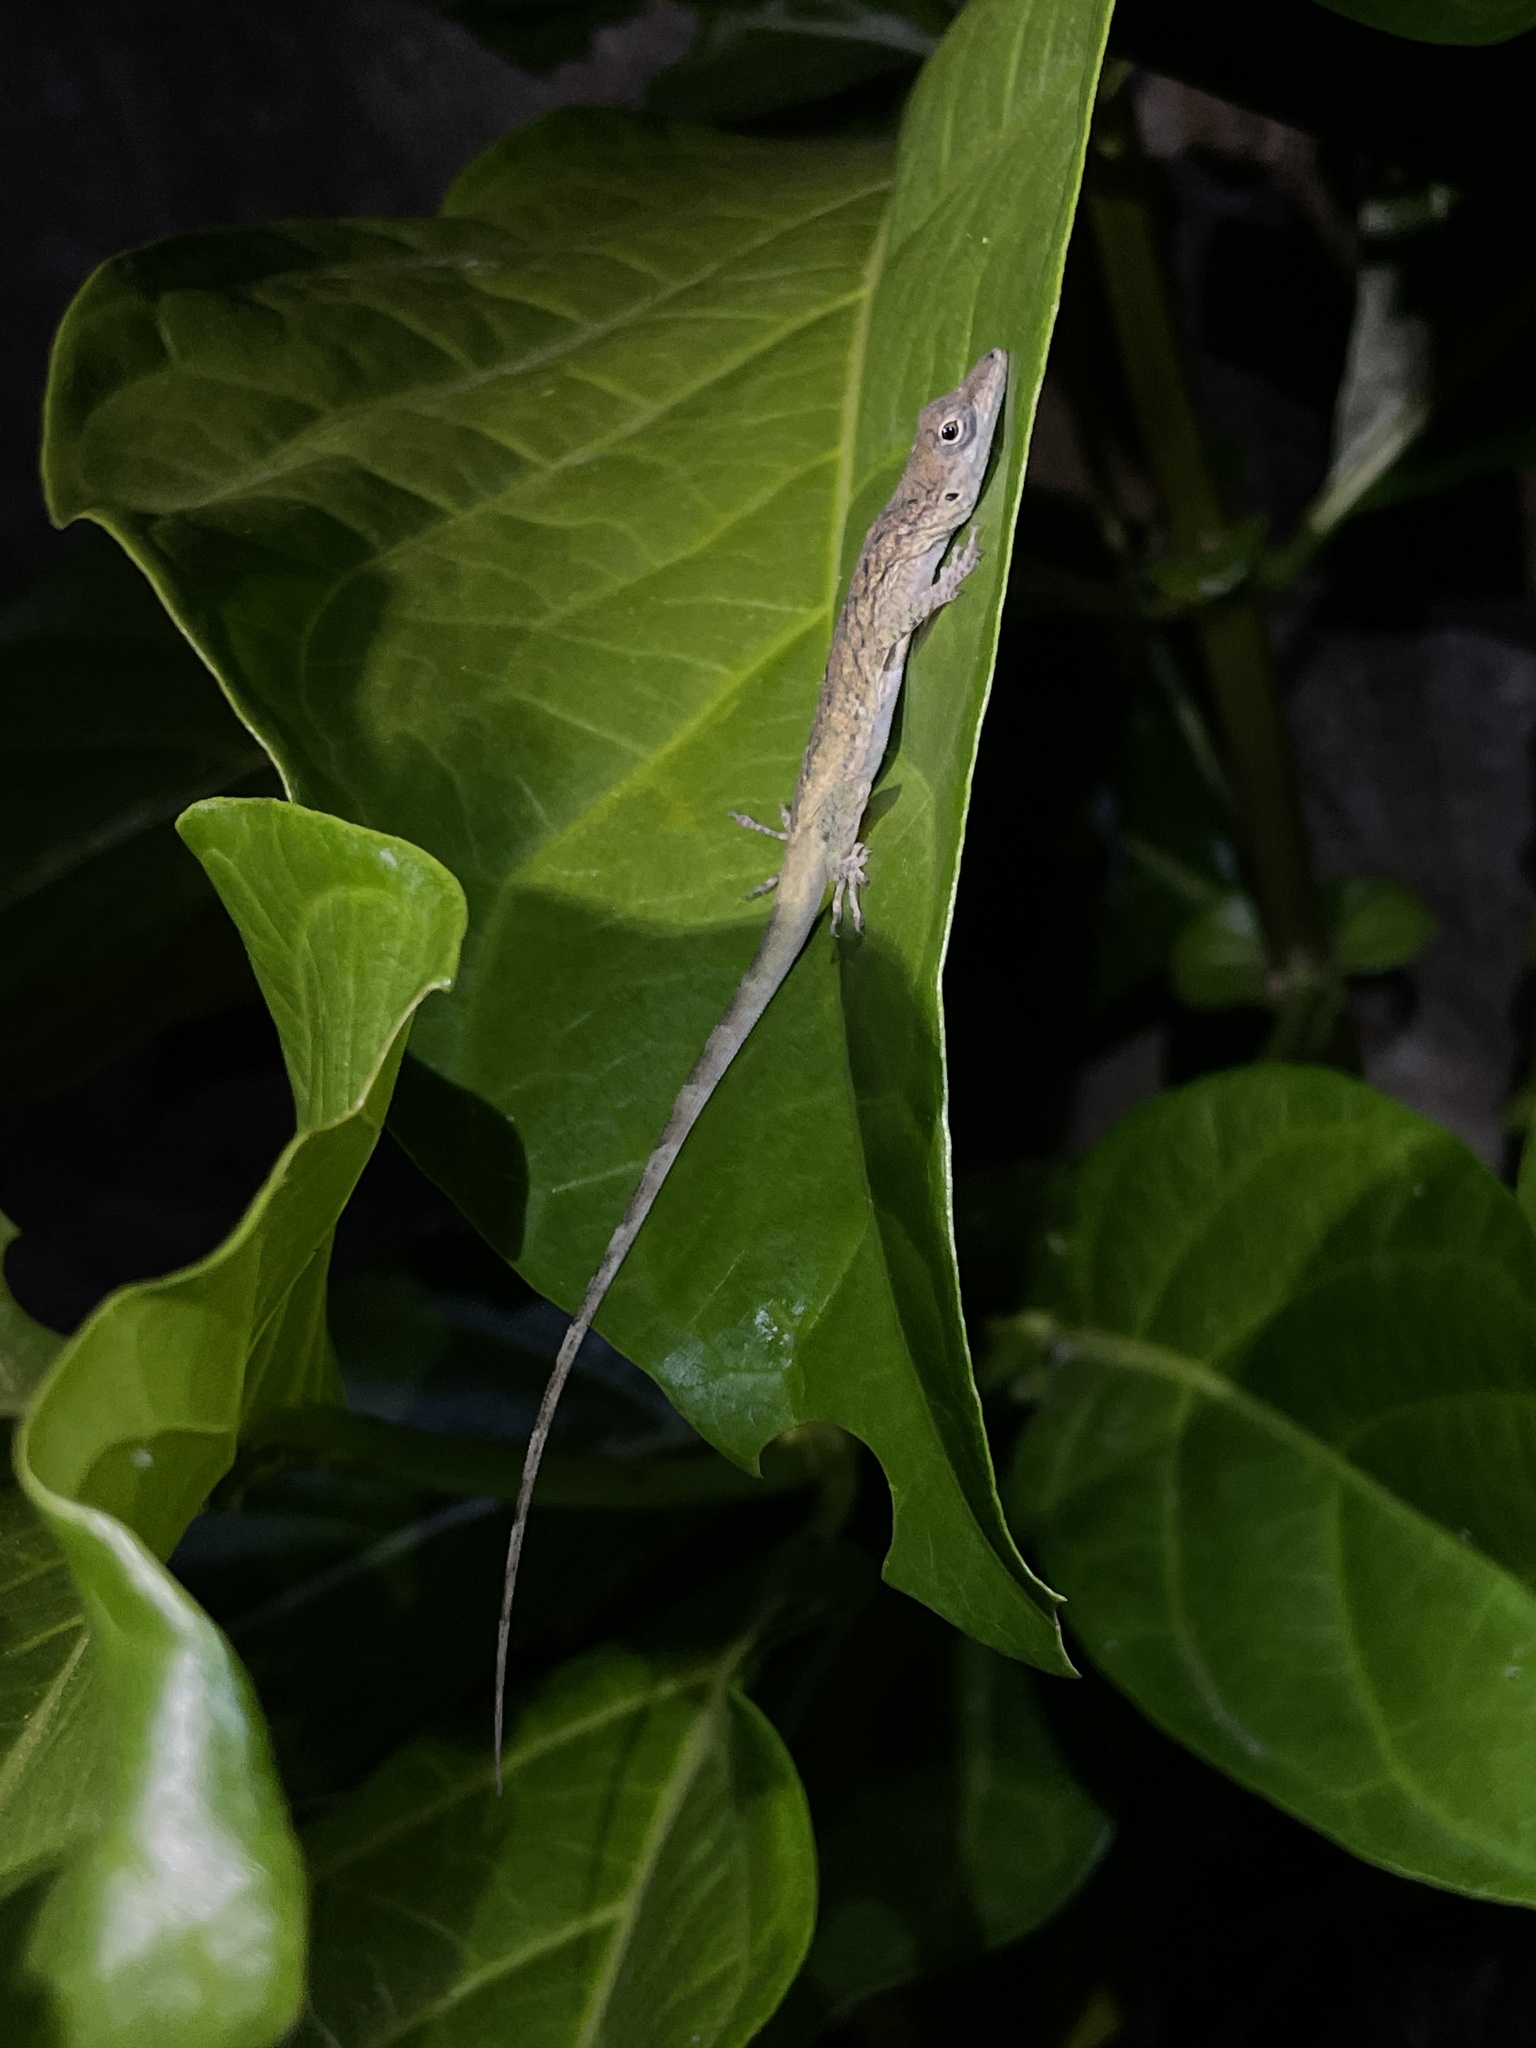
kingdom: Animalia
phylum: Chordata
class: Squamata
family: Dactyloidae
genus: Anolis
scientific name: Anolis aeneus
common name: Bronze anole
